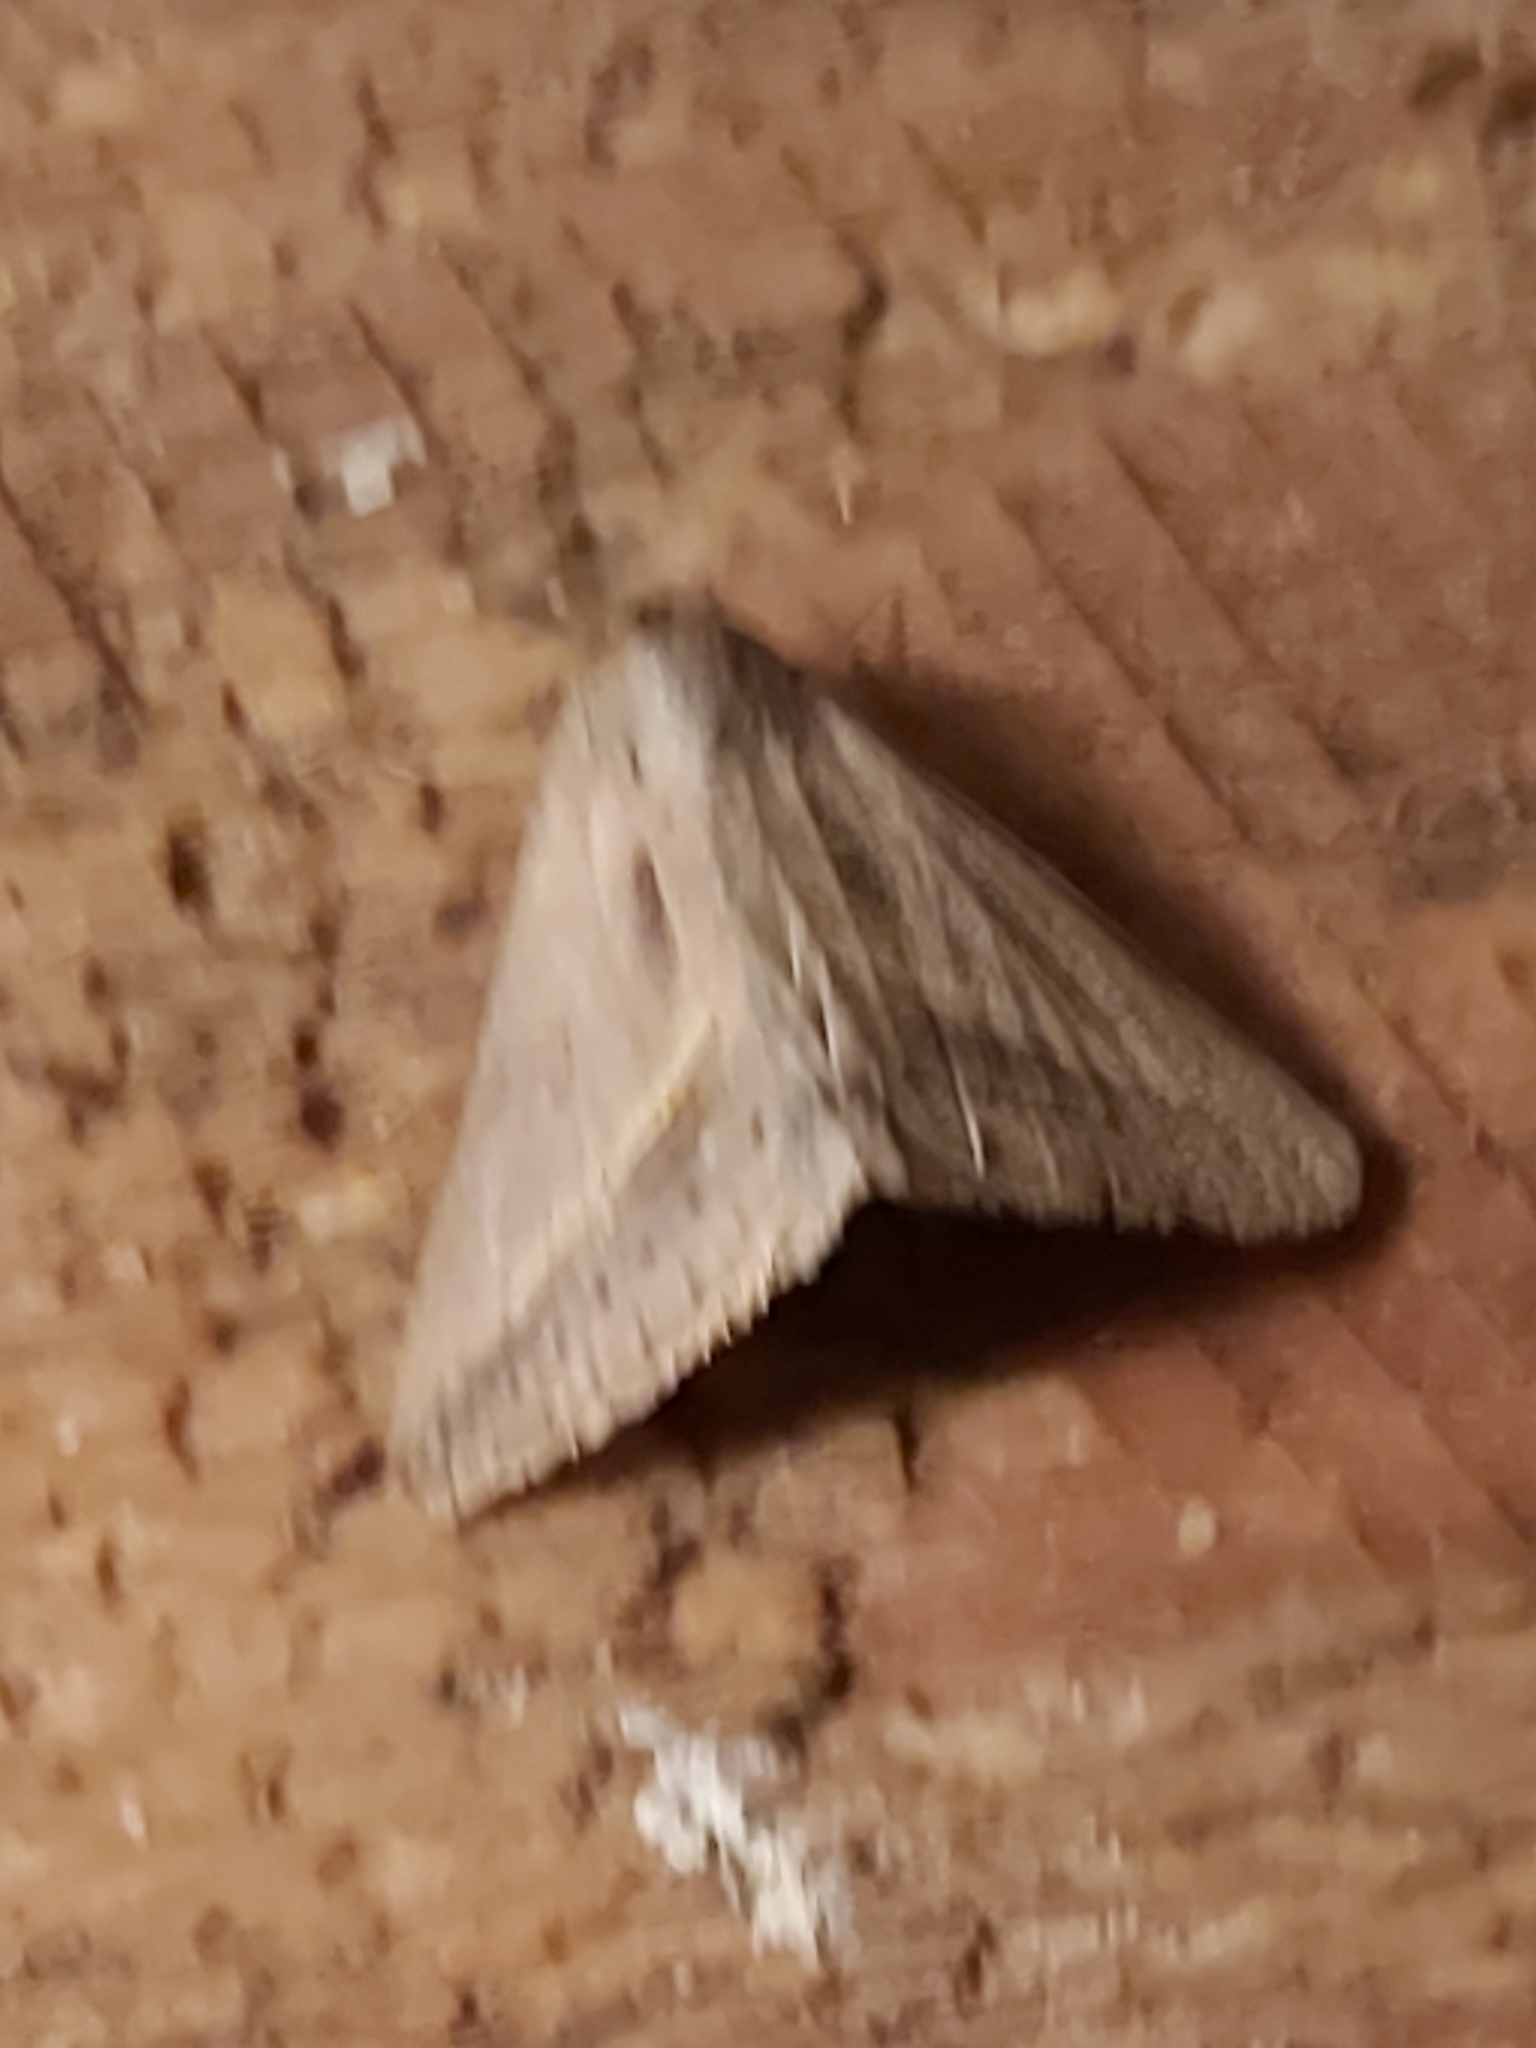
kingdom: Animalia
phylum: Arthropoda
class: Insecta
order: Lepidoptera
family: Erebidae
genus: Mocis
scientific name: Mocis frugalis
